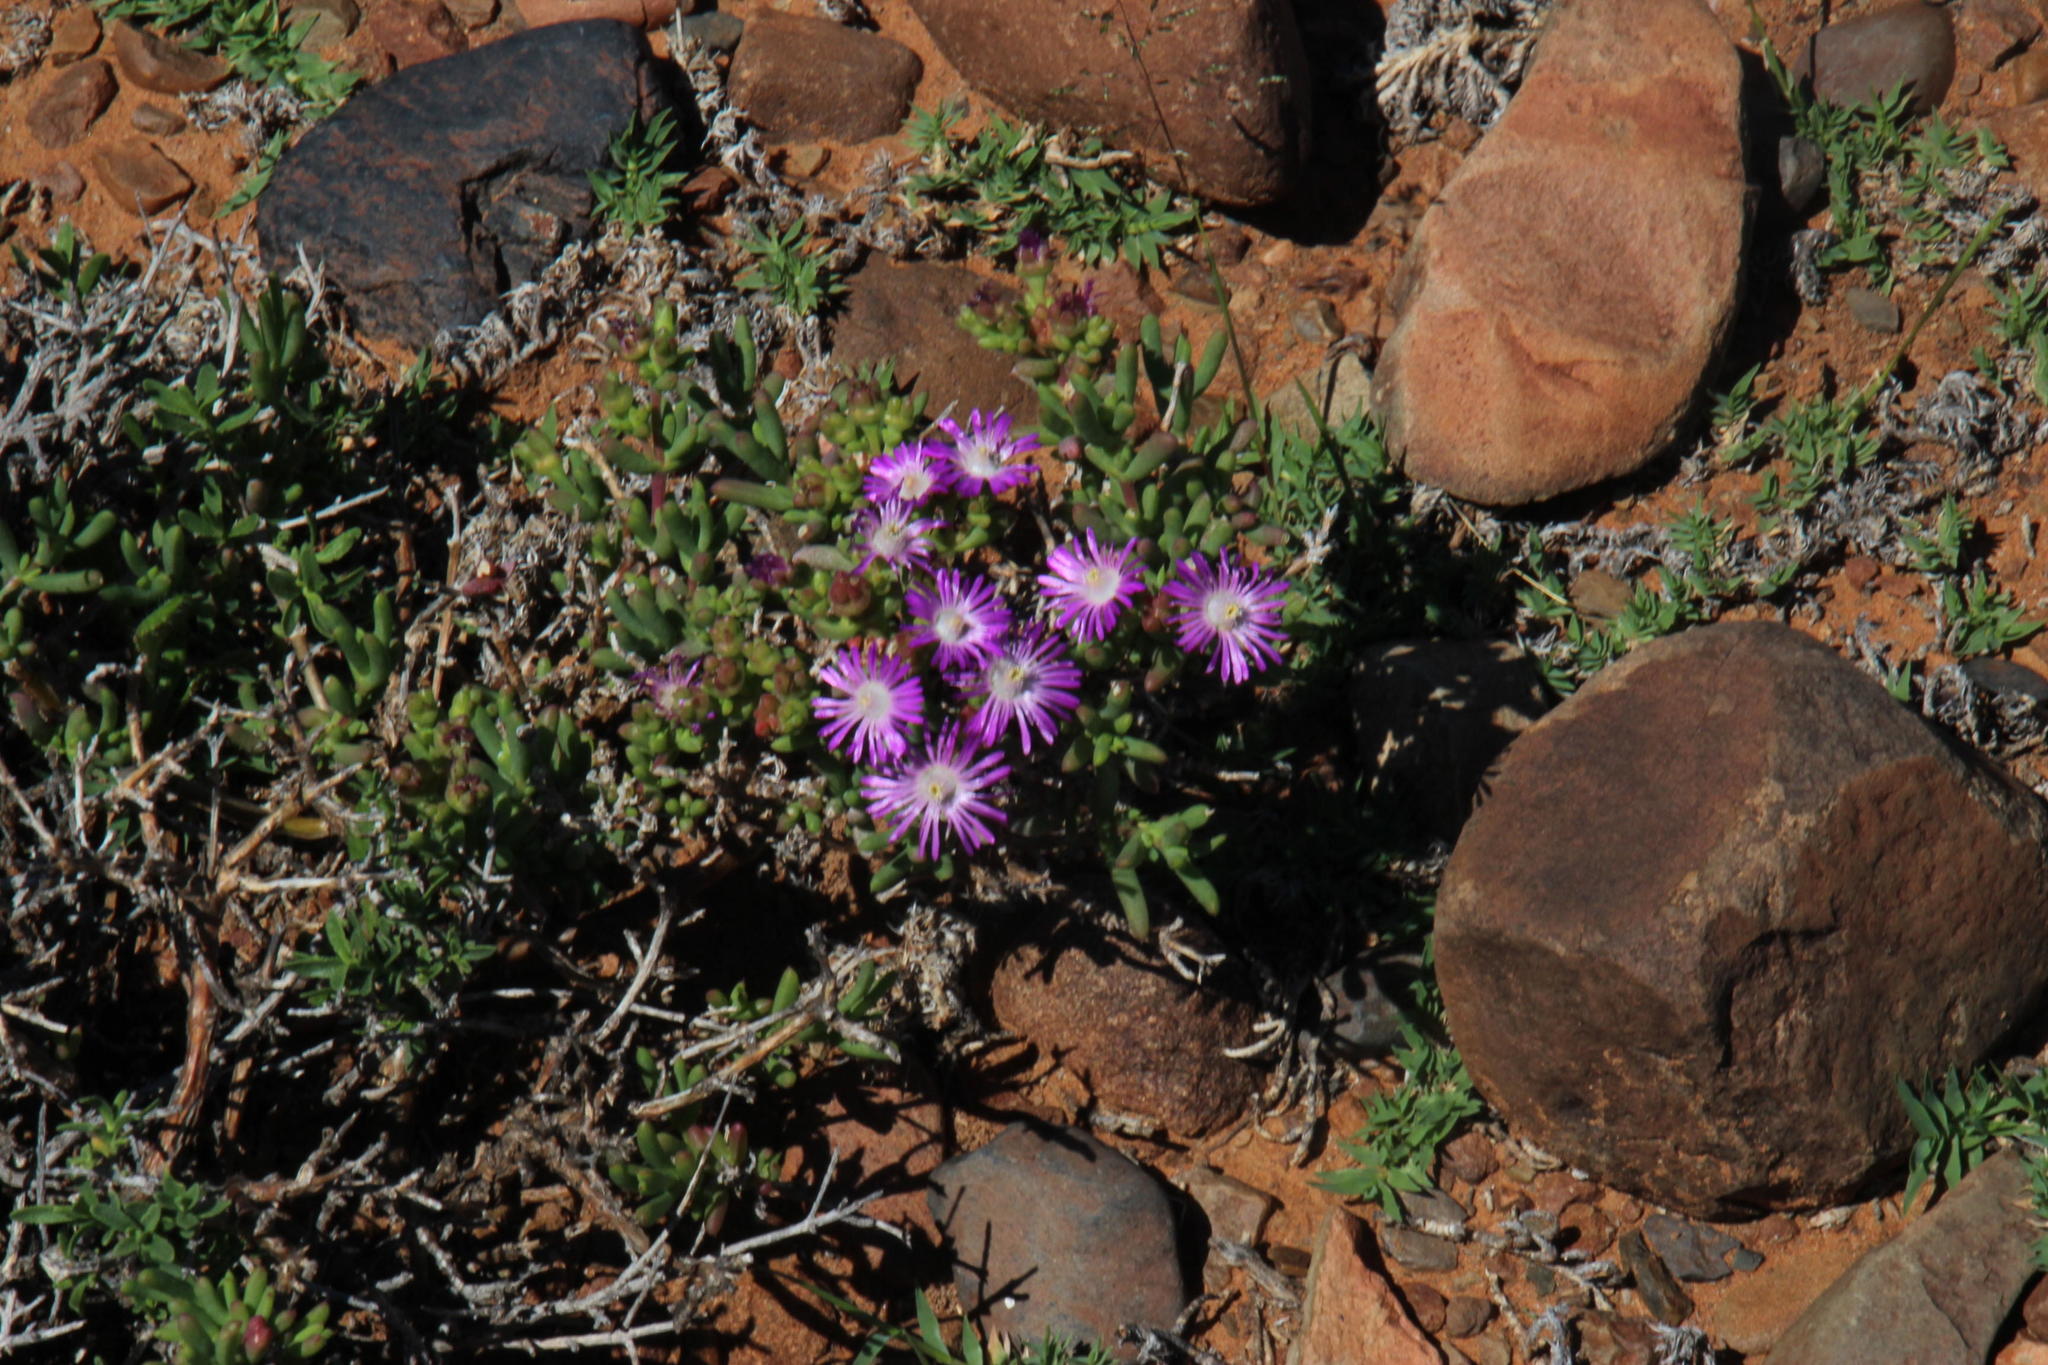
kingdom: Plantae
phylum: Tracheophyta
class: Magnoliopsida
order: Caryophyllales
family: Aizoaceae
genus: Delosperma
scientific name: Delosperma peersii
